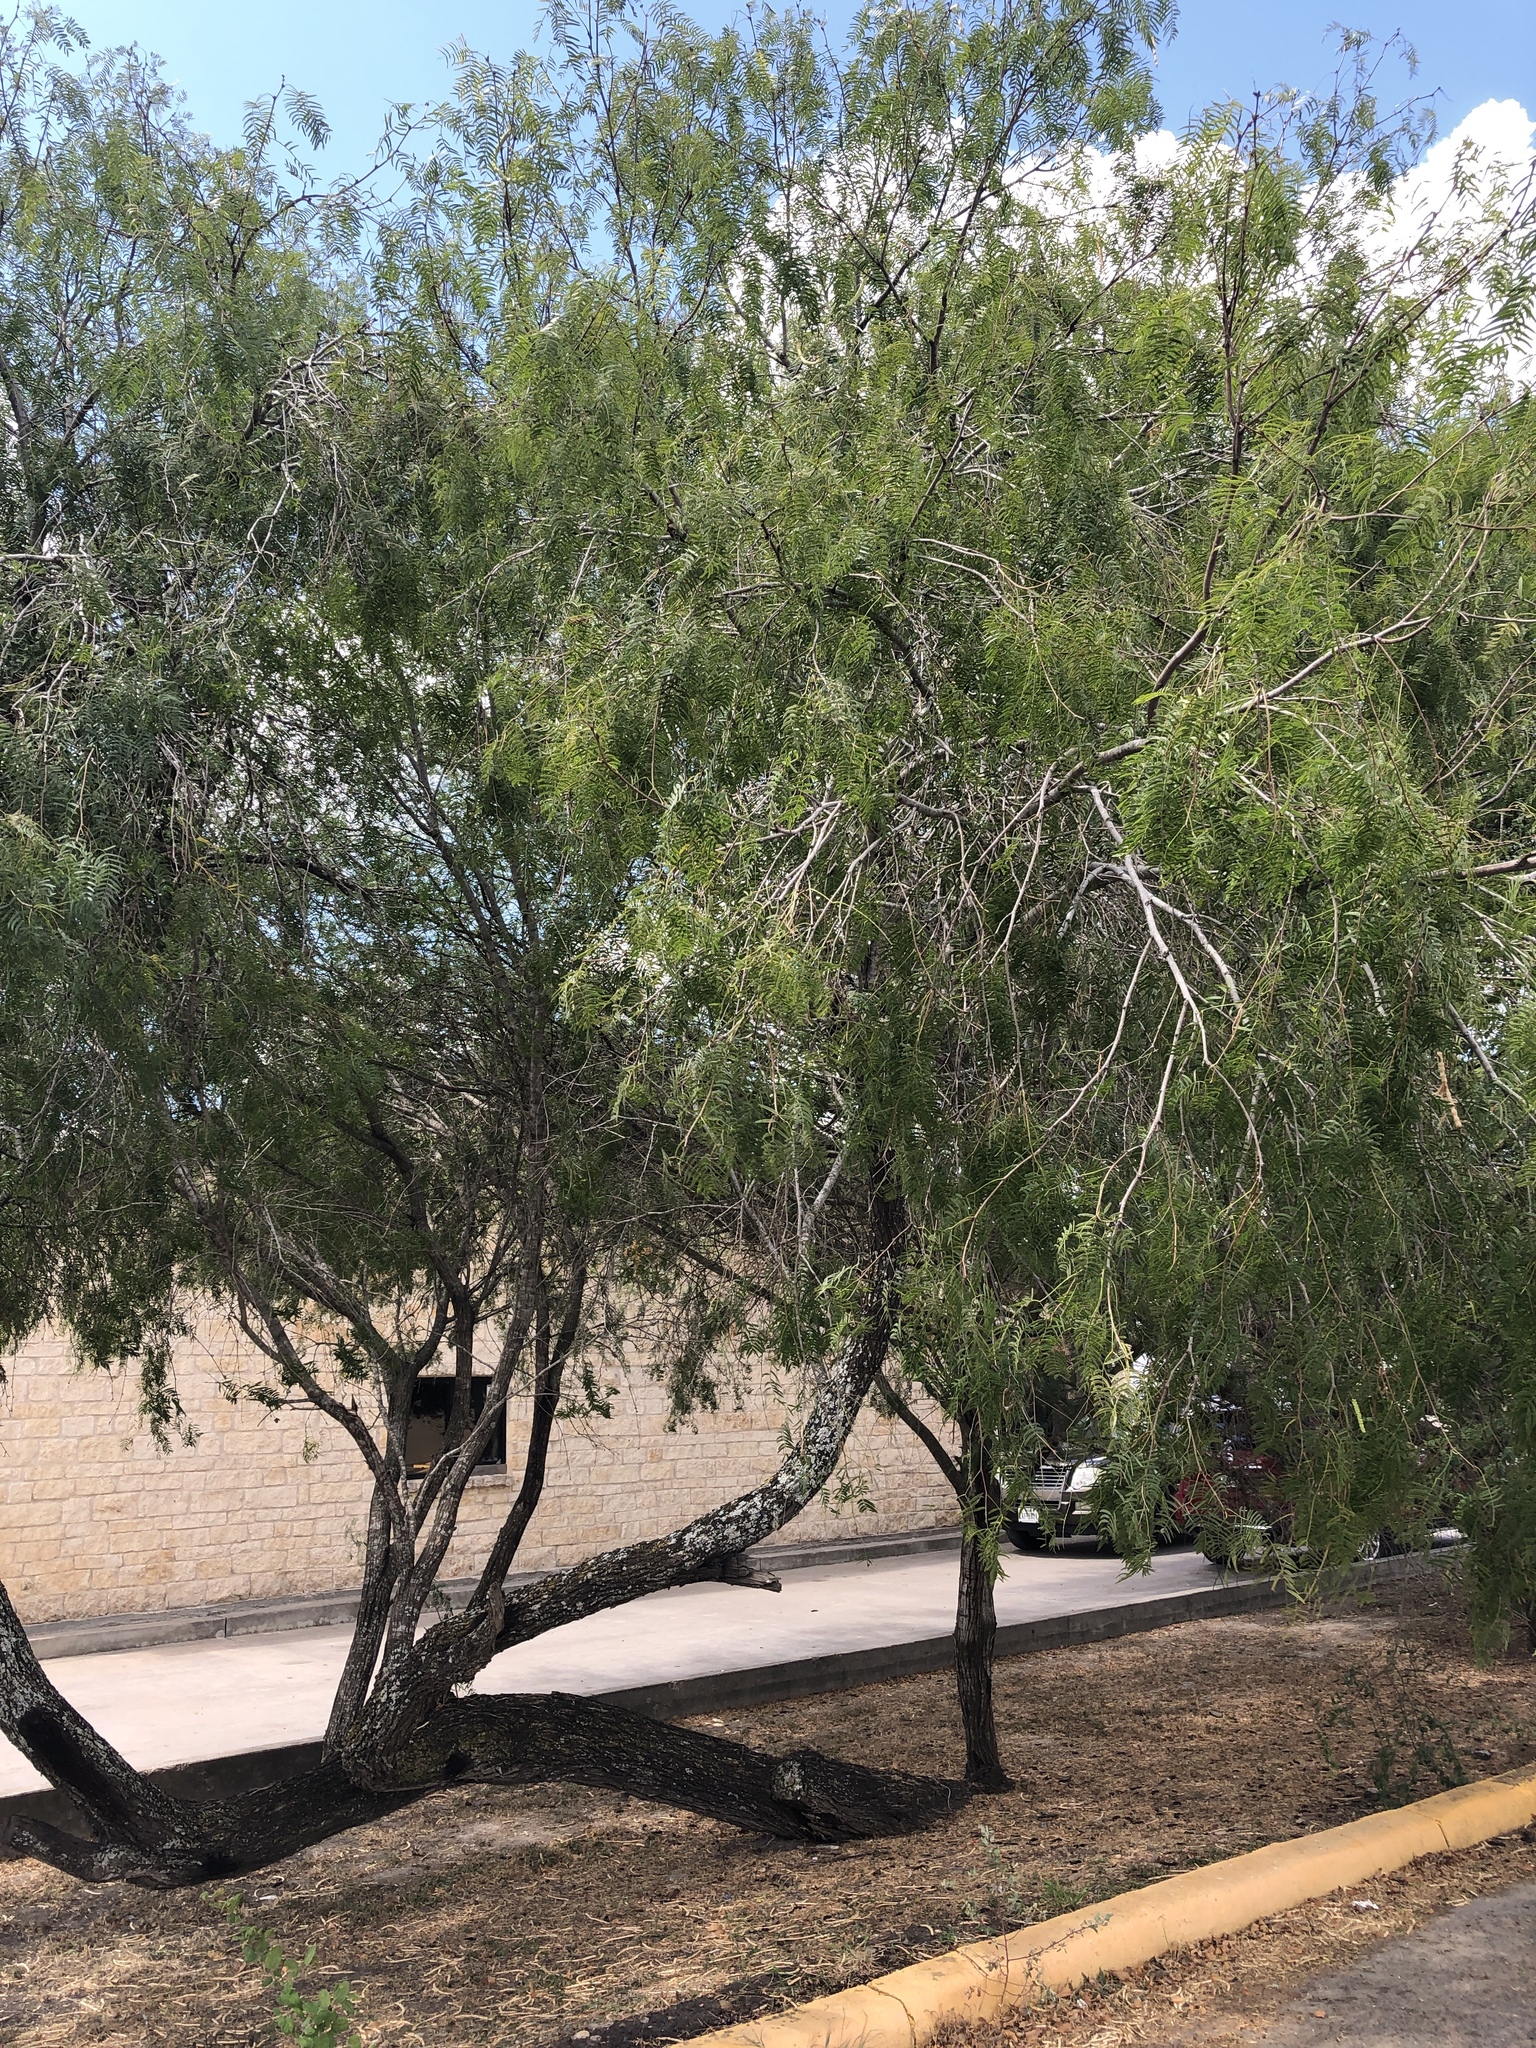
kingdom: Plantae
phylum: Tracheophyta
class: Magnoliopsida
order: Fabales
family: Fabaceae
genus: Prosopis
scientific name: Prosopis glandulosa
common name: Honey mesquite
